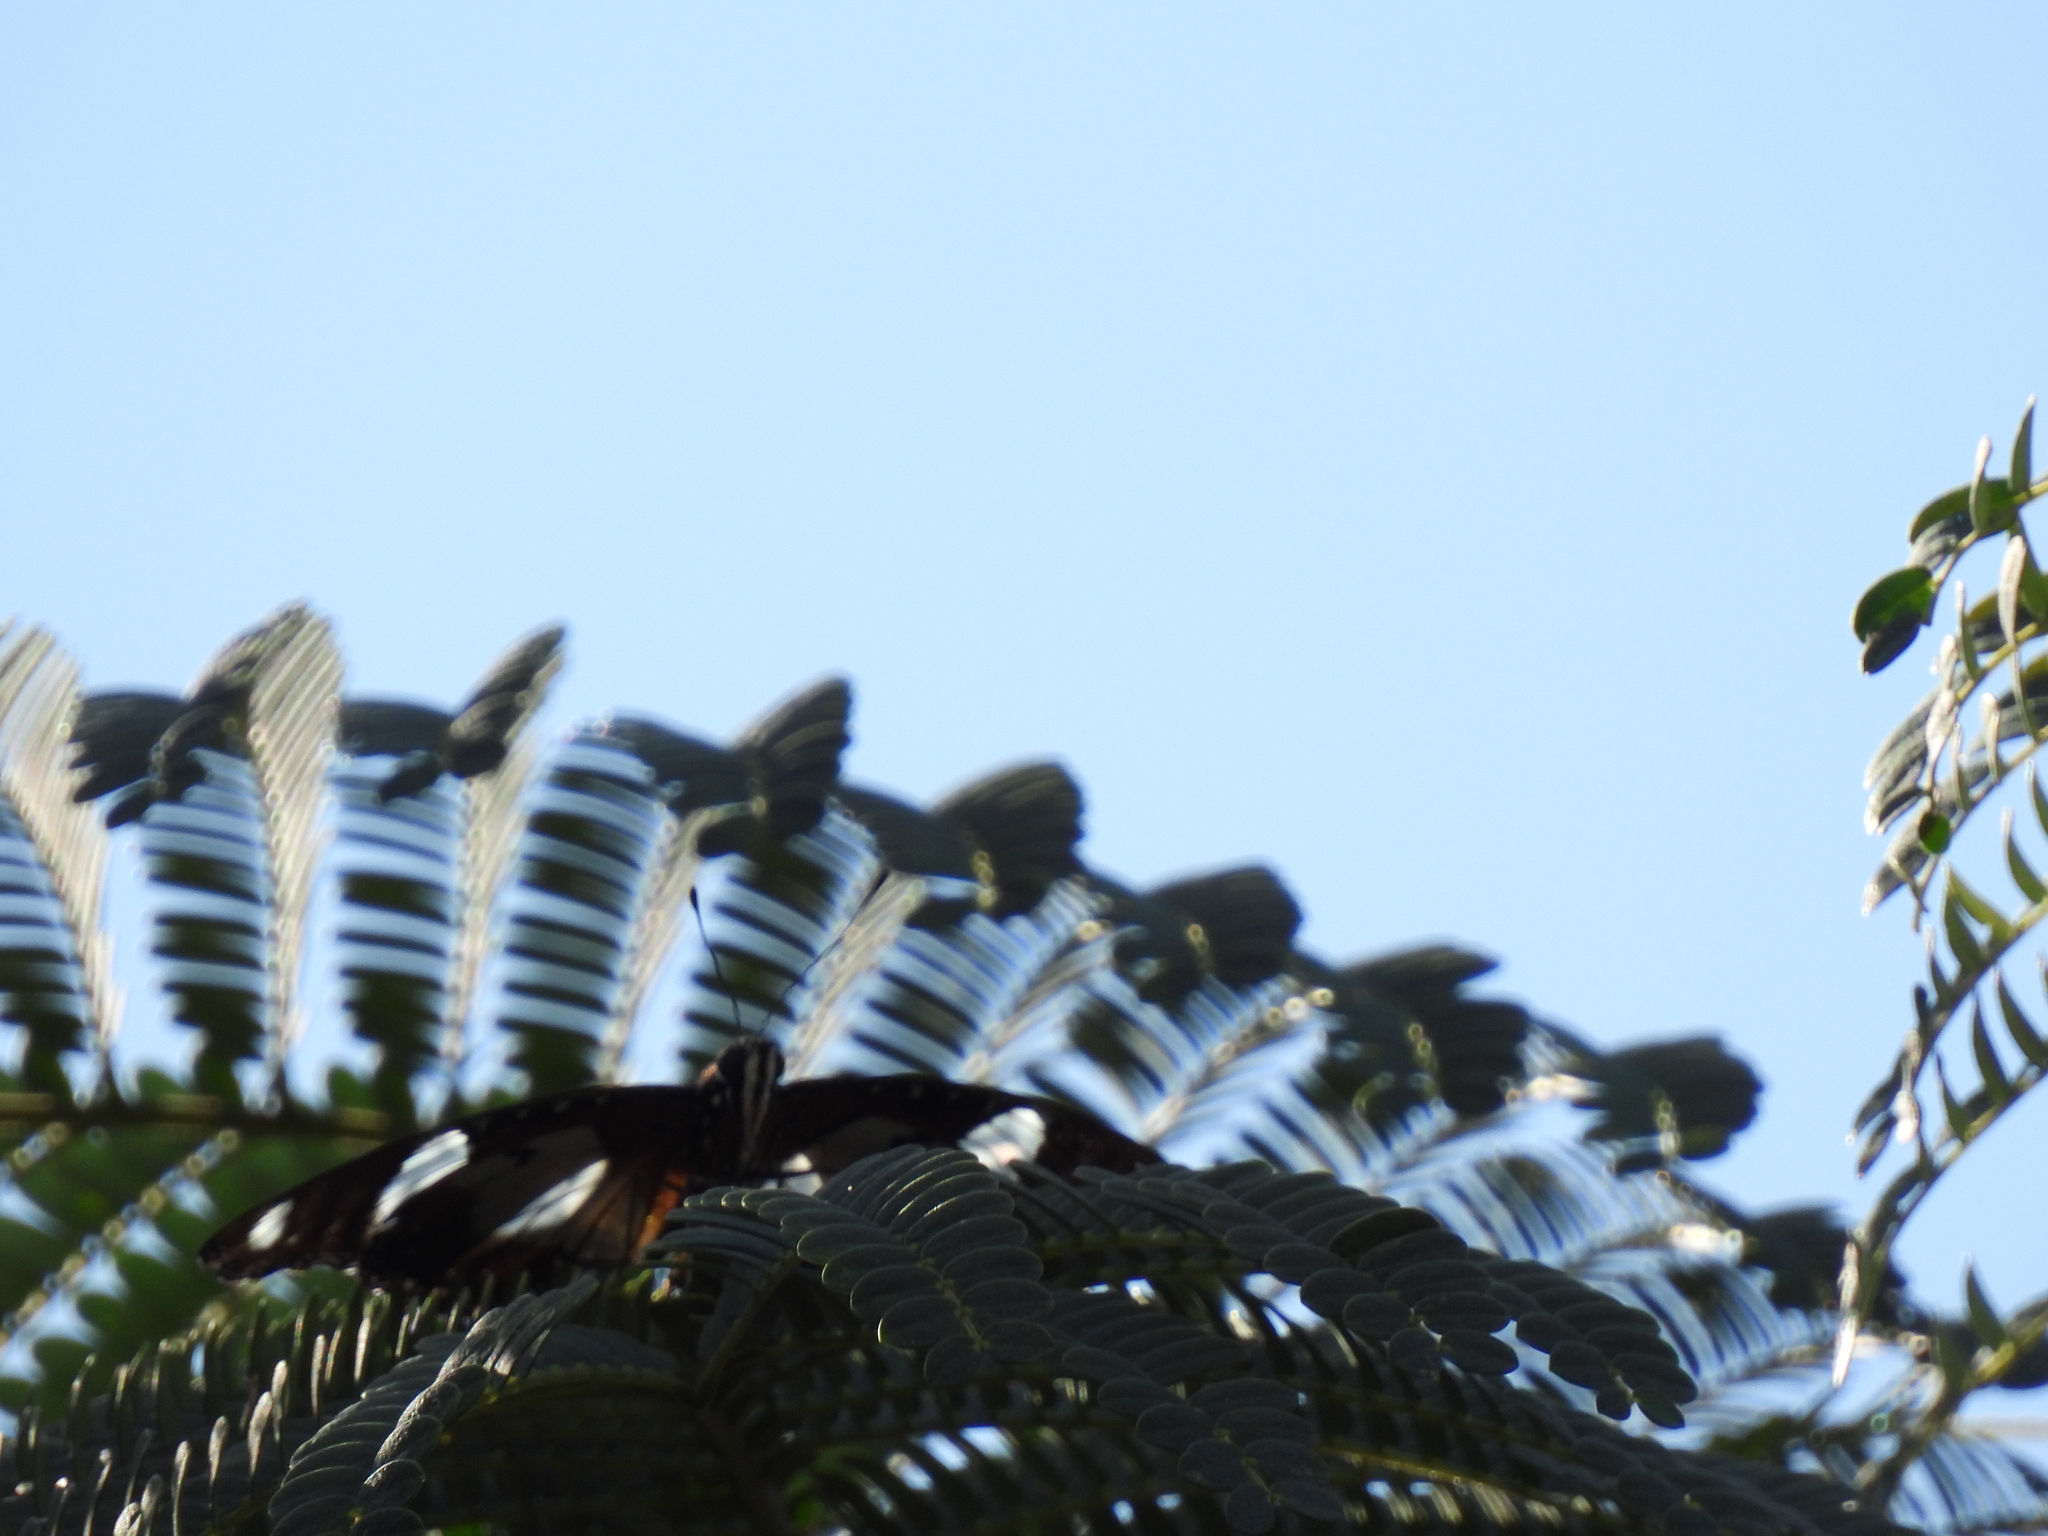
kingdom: Animalia
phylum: Arthropoda
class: Insecta
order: Lepidoptera
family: Nymphalidae
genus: Hypolimnas
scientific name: Hypolimnas misippus
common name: False plain tiger
